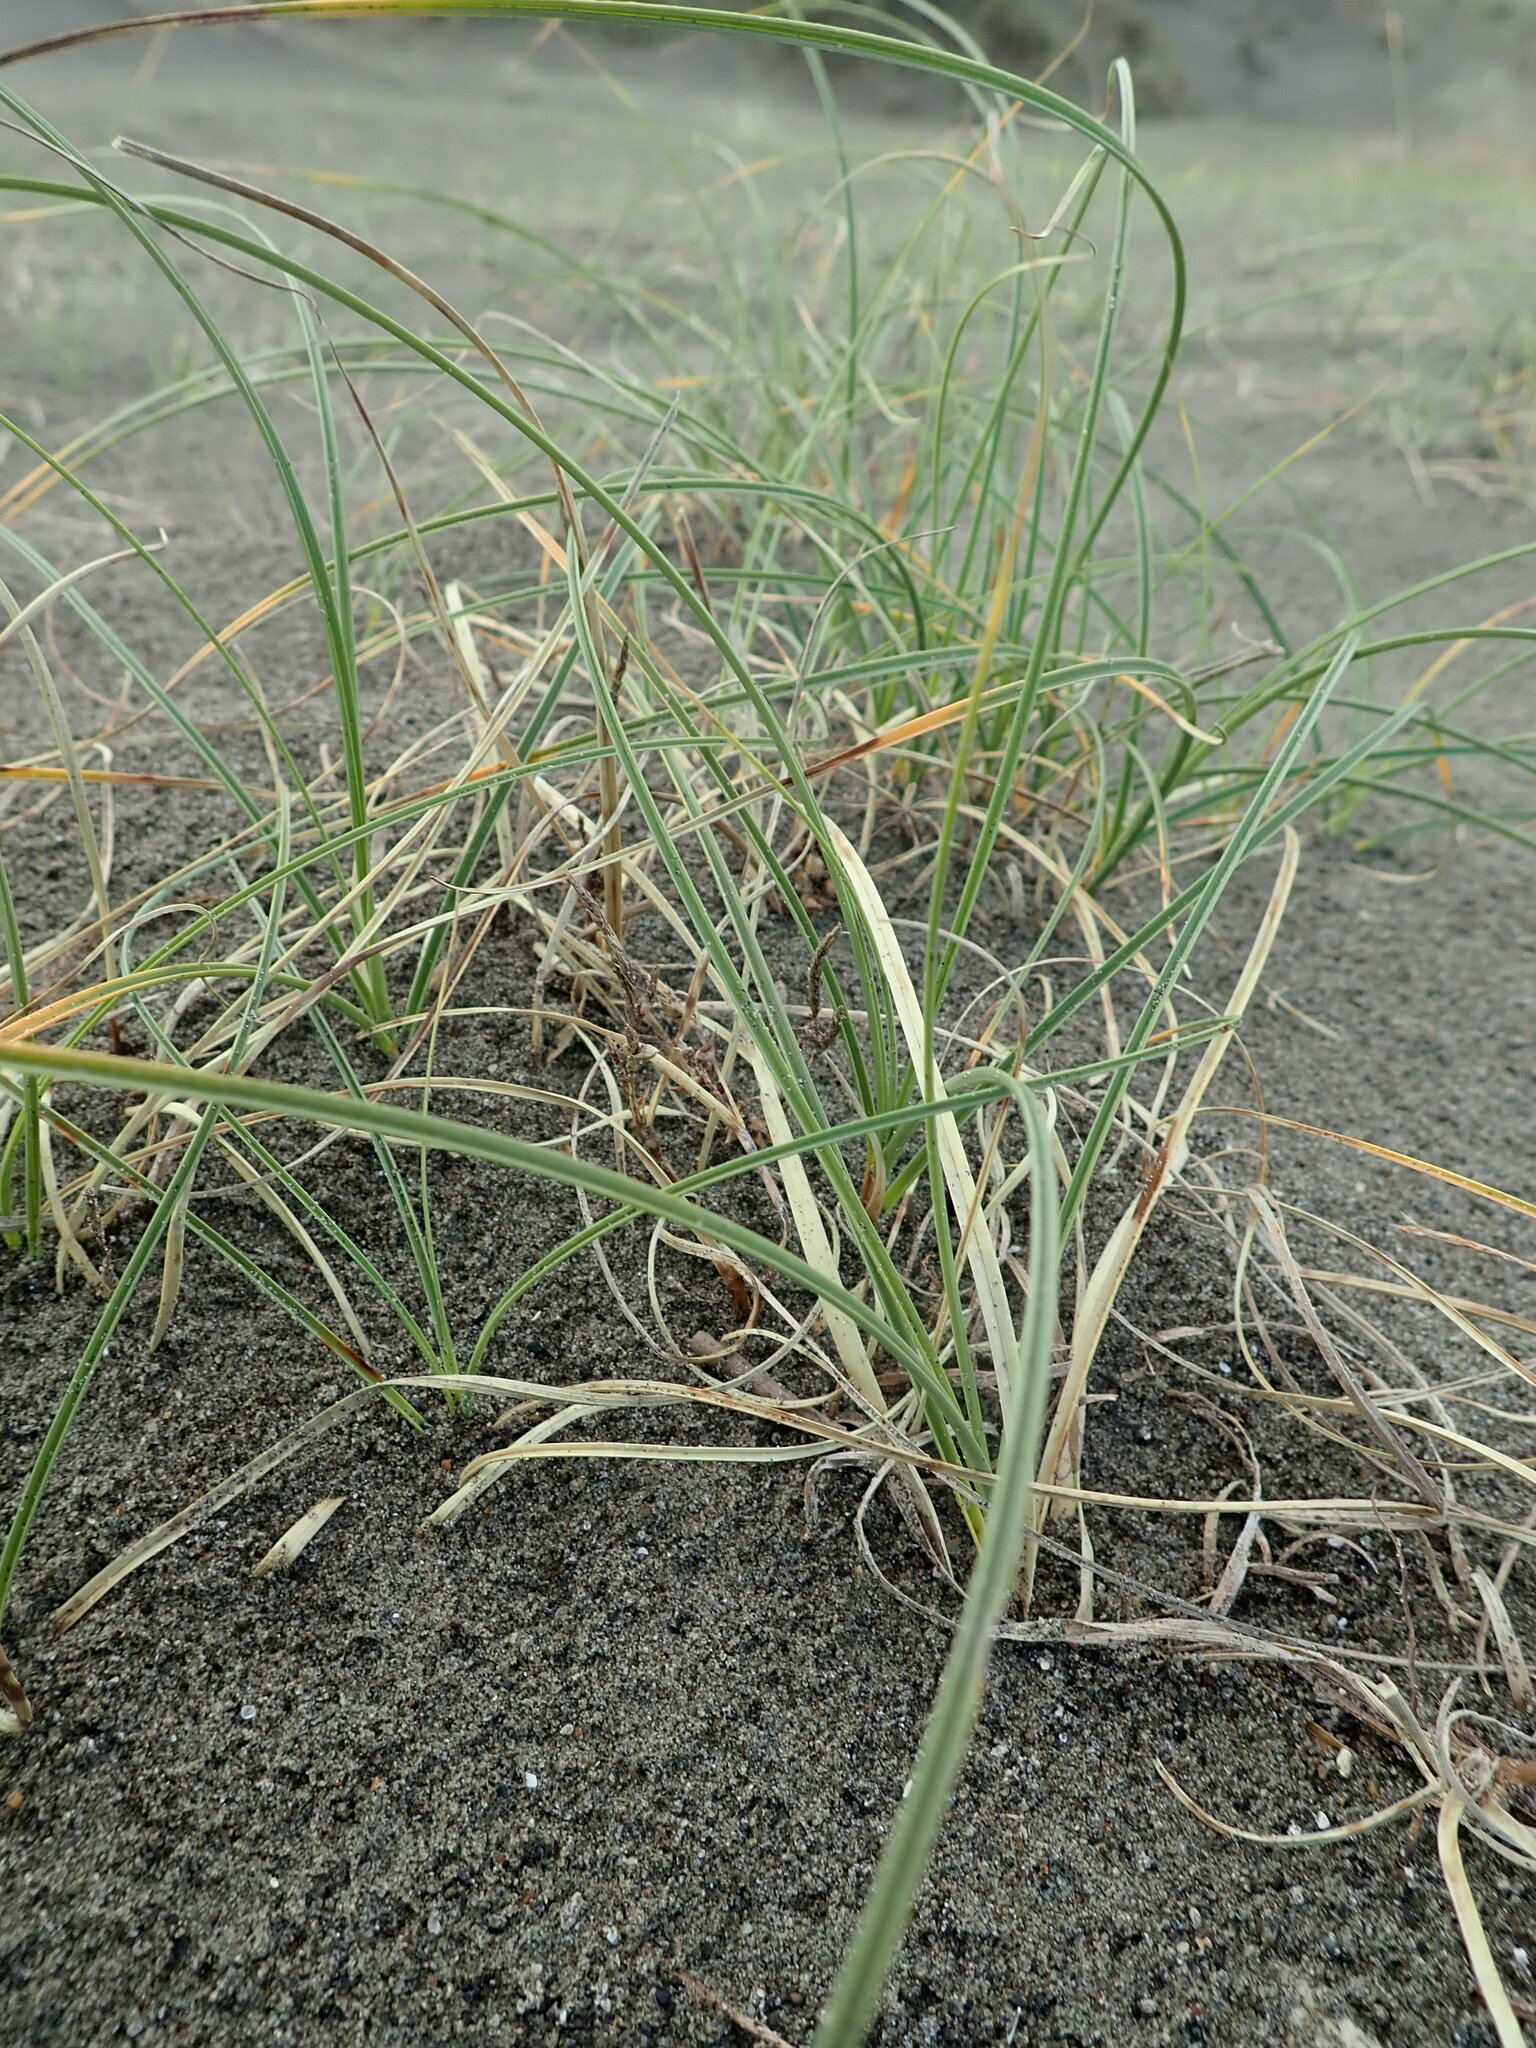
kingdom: Plantae
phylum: Tracheophyta
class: Liliopsida
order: Poales
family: Cyperaceae
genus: Carex
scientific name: Carex pumila
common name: Dwarf sedge
